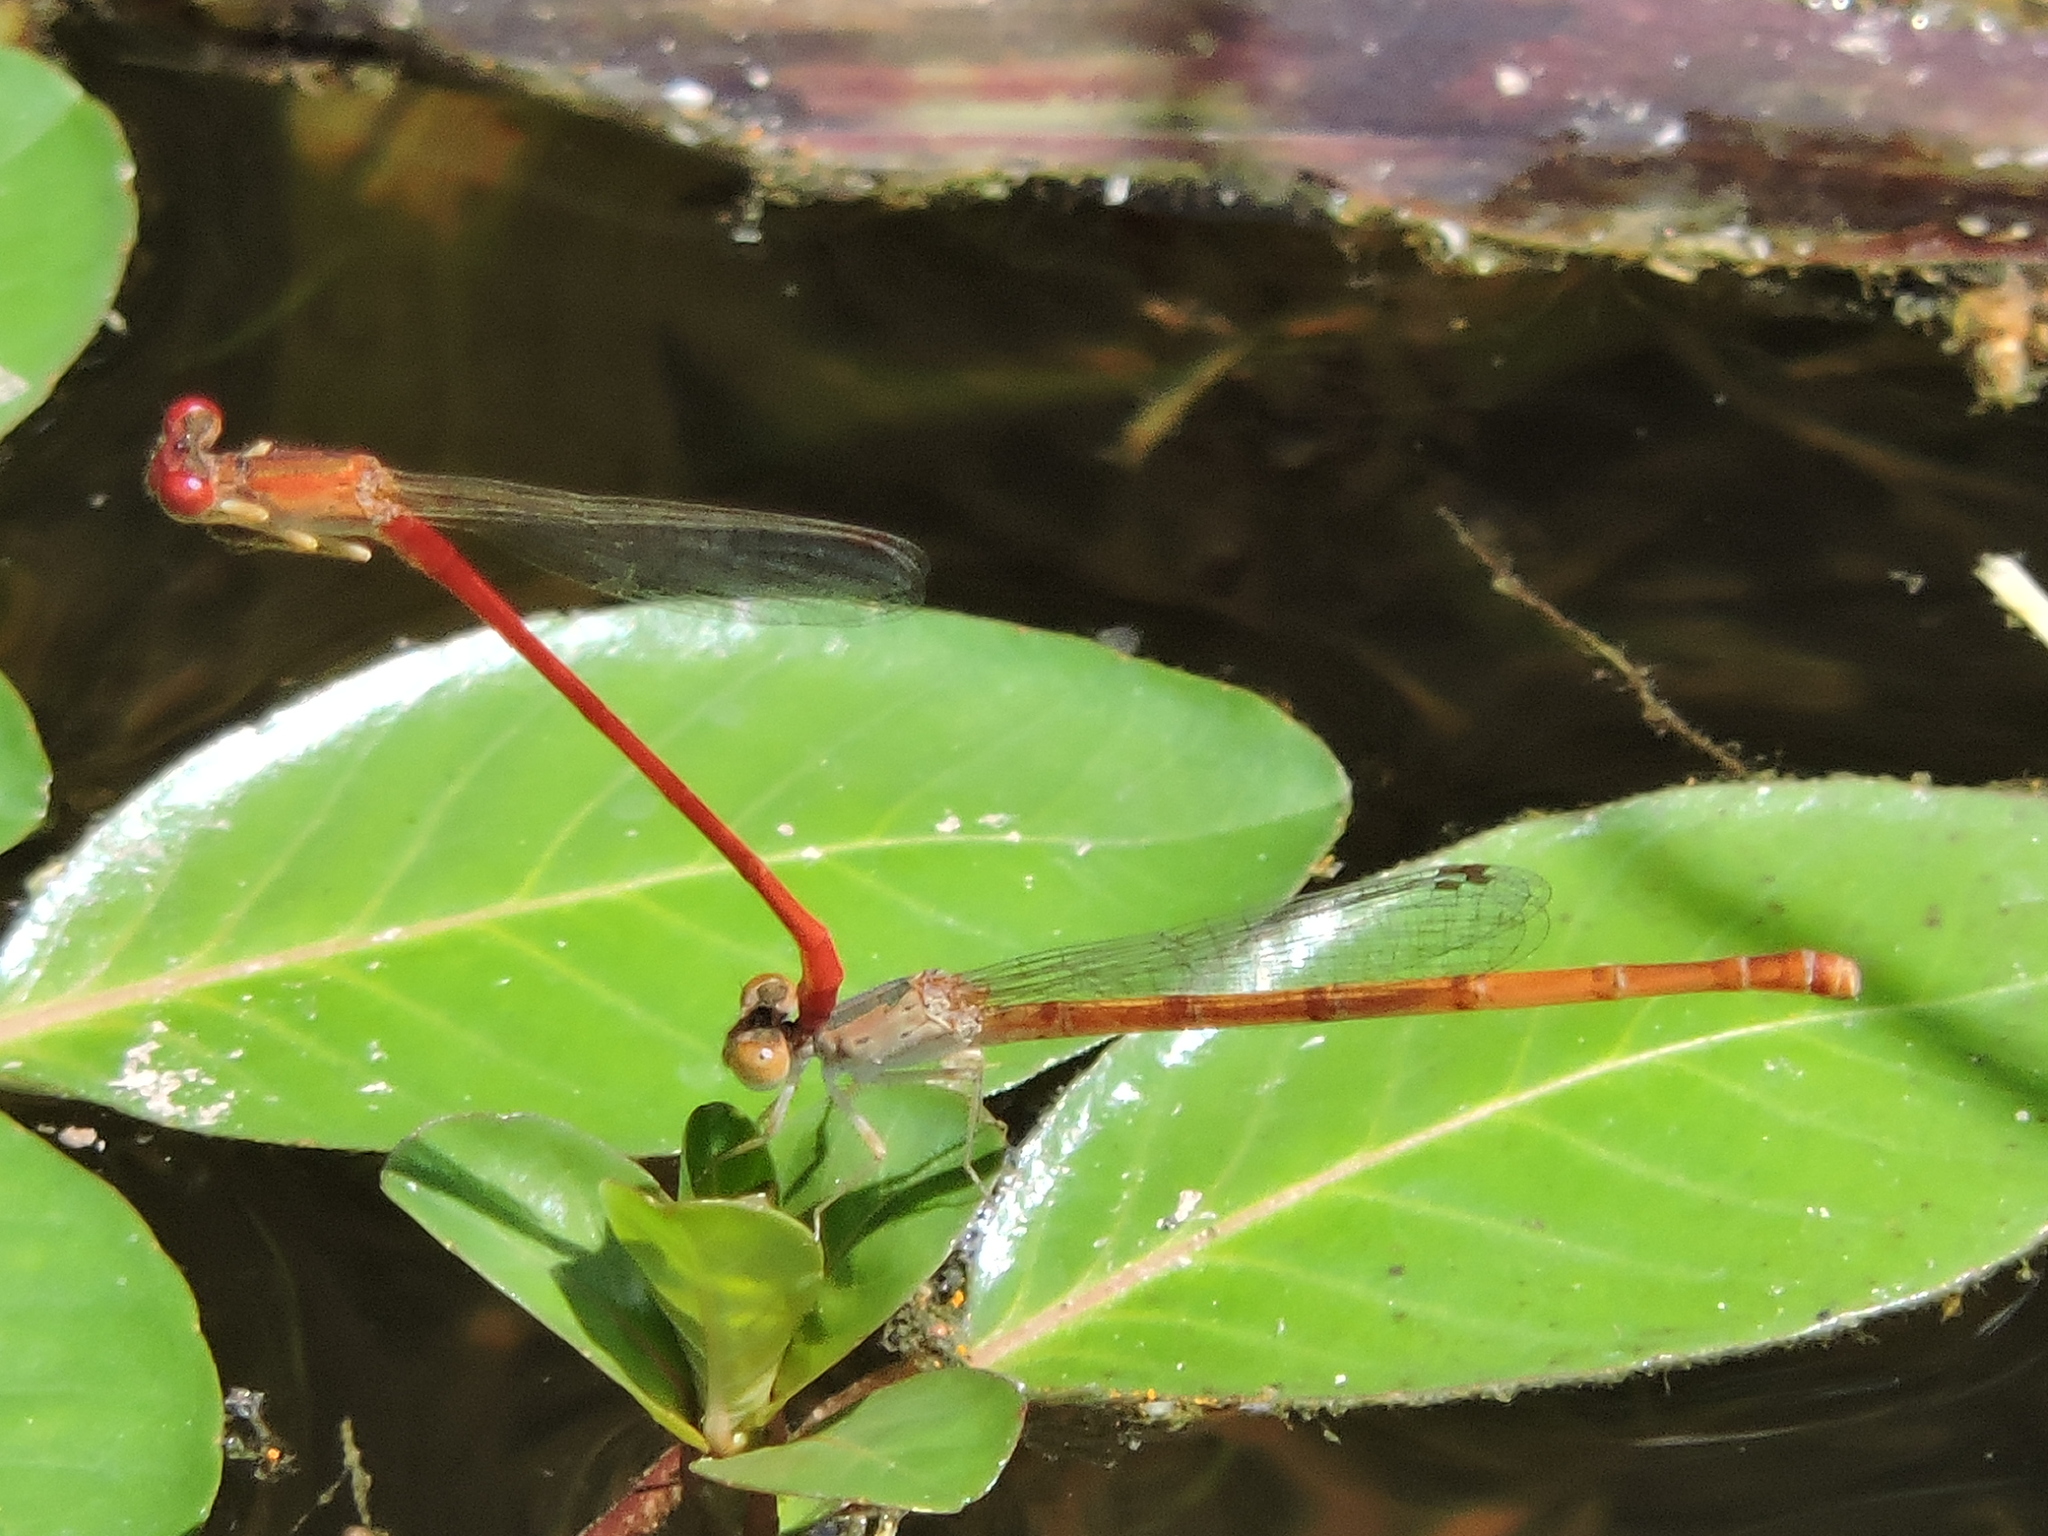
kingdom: Animalia
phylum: Arthropoda
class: Insecta
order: Odonata
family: Coenagrionidae
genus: Telebasis
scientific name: Telebasis salva
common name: Desert firetail
